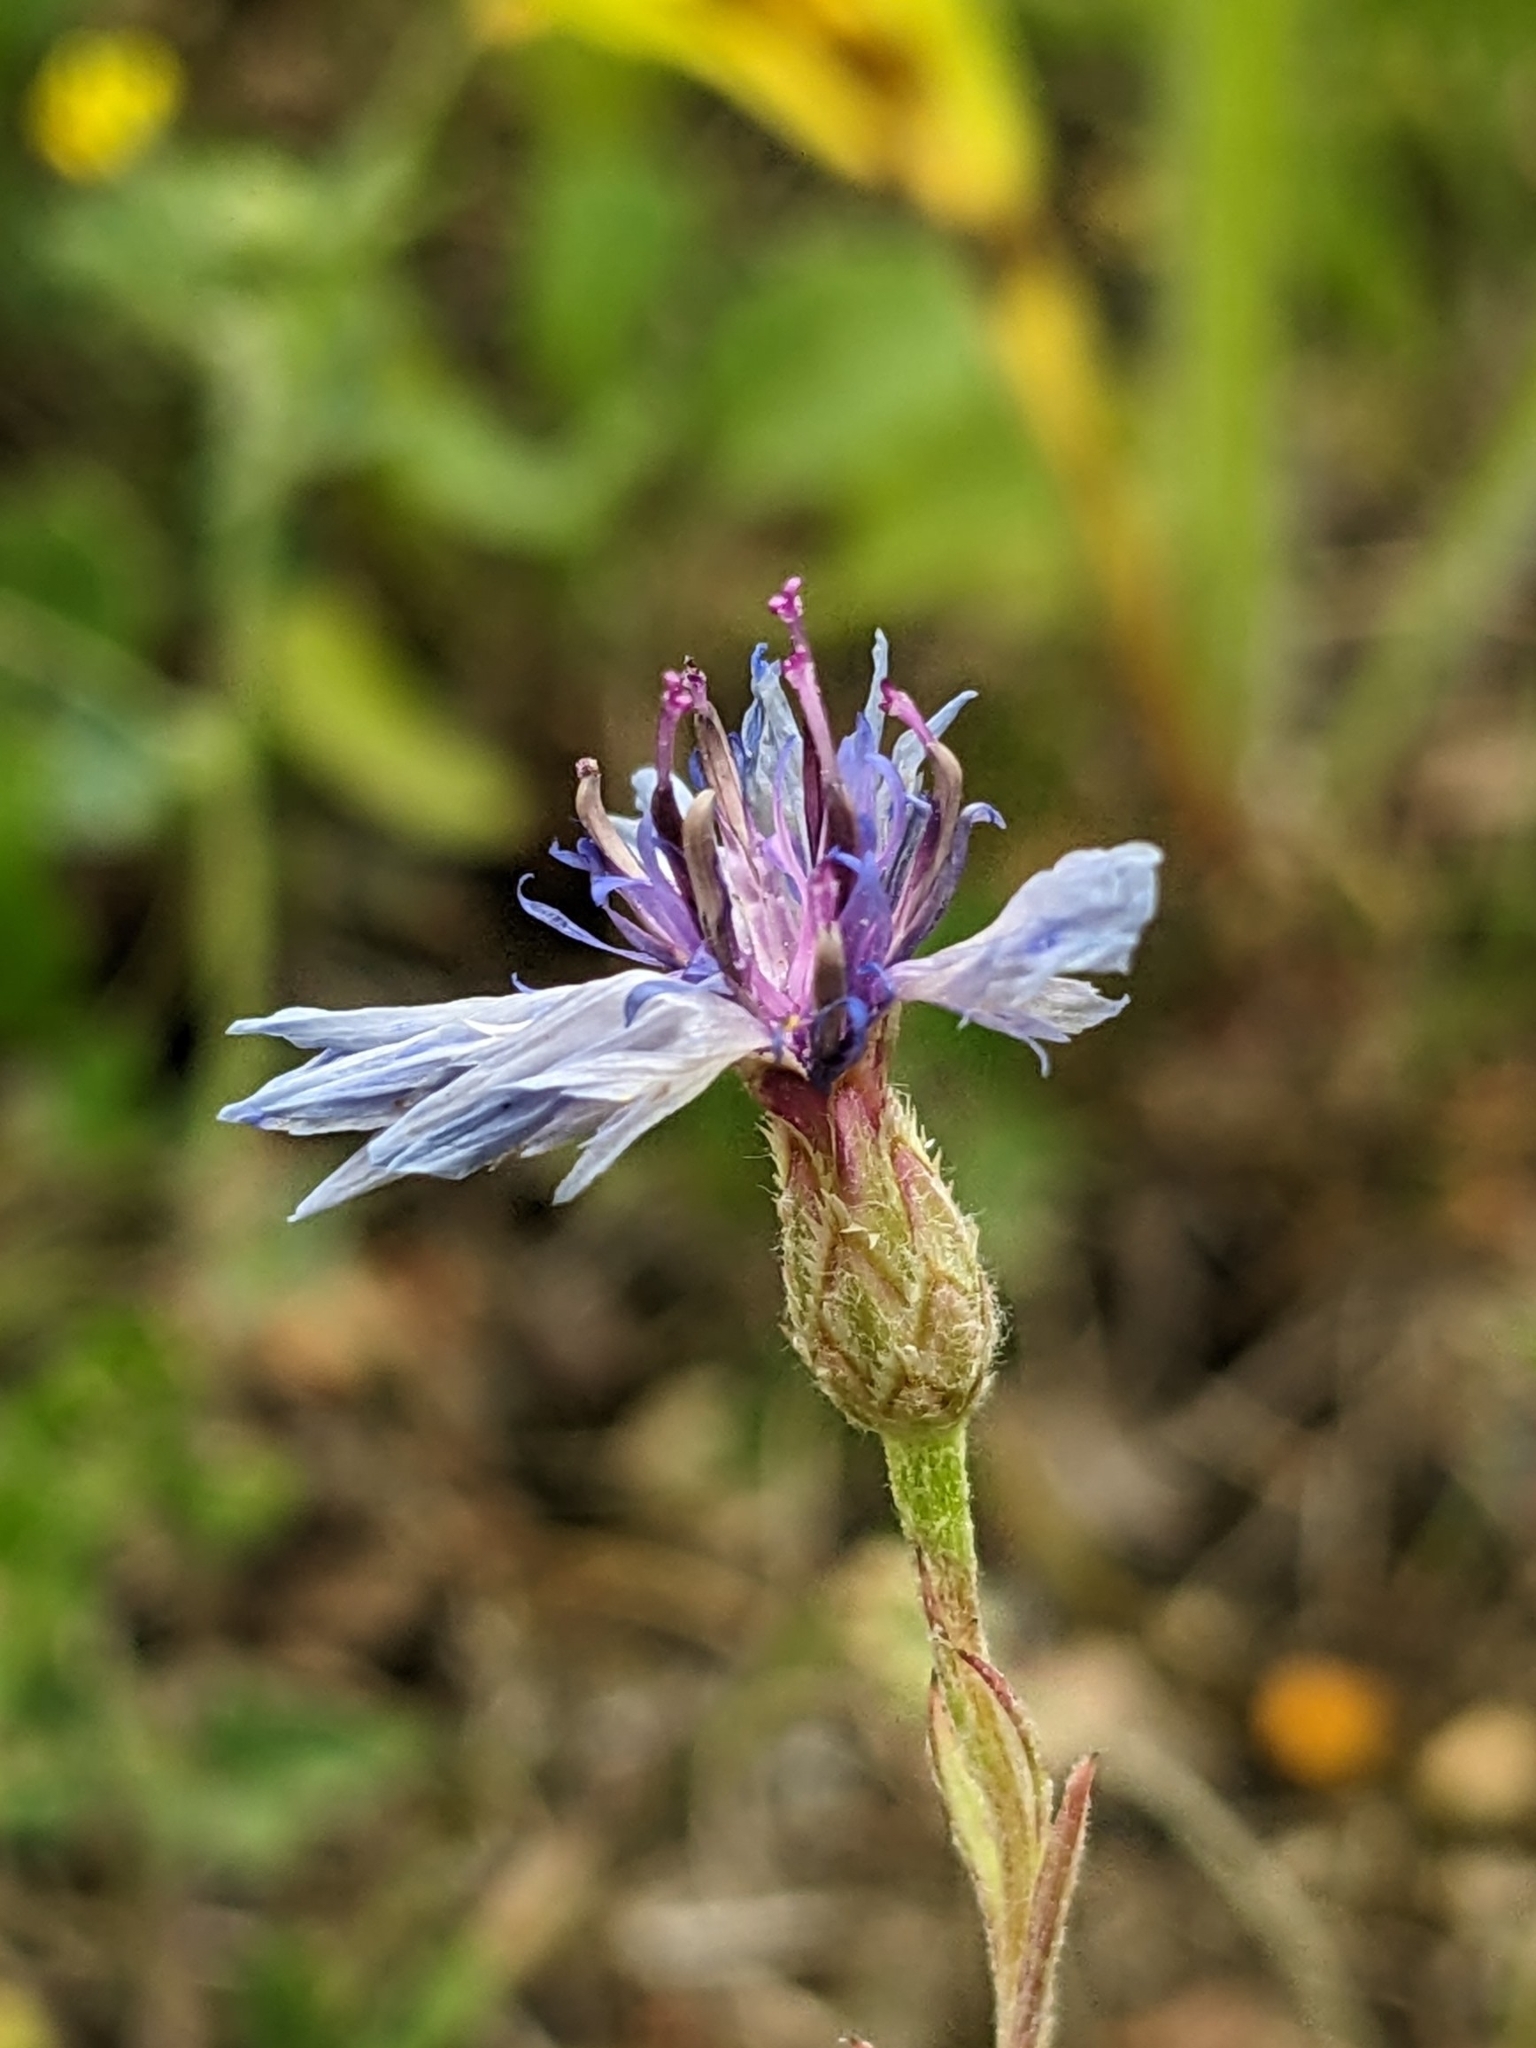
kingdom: Plantae
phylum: Tracheophyta
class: Magnoliopsida
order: Asterales
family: Asteraceae
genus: Centaurea
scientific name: Centaurea cyanus
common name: Cornflower
